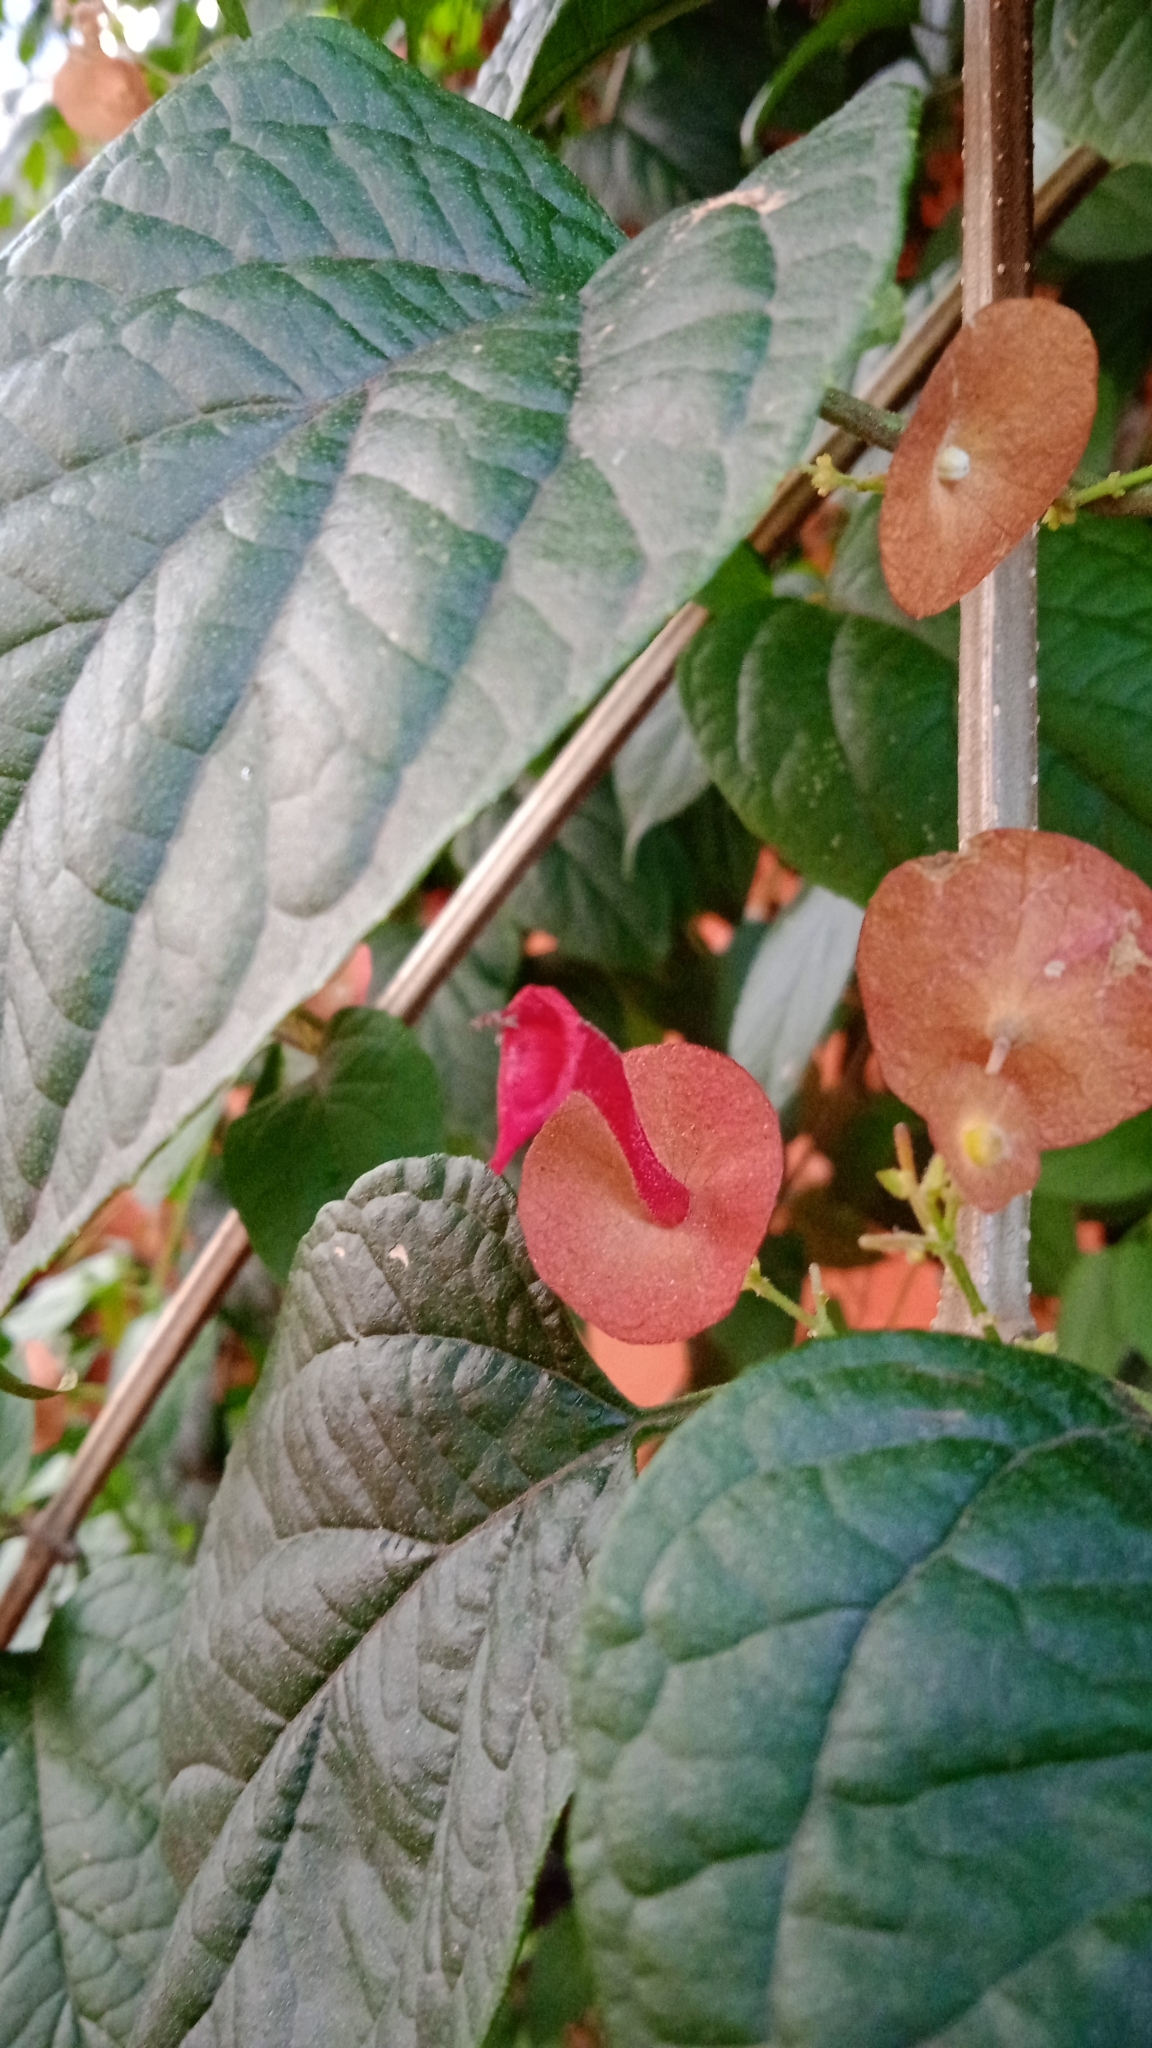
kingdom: Plantae
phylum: Tracheophyta
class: Magnoliopsida
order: Lamiales
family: Lamiaceae
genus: Holmskioldia
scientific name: Holmskioldia sanguinea
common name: Chinese hatplant
